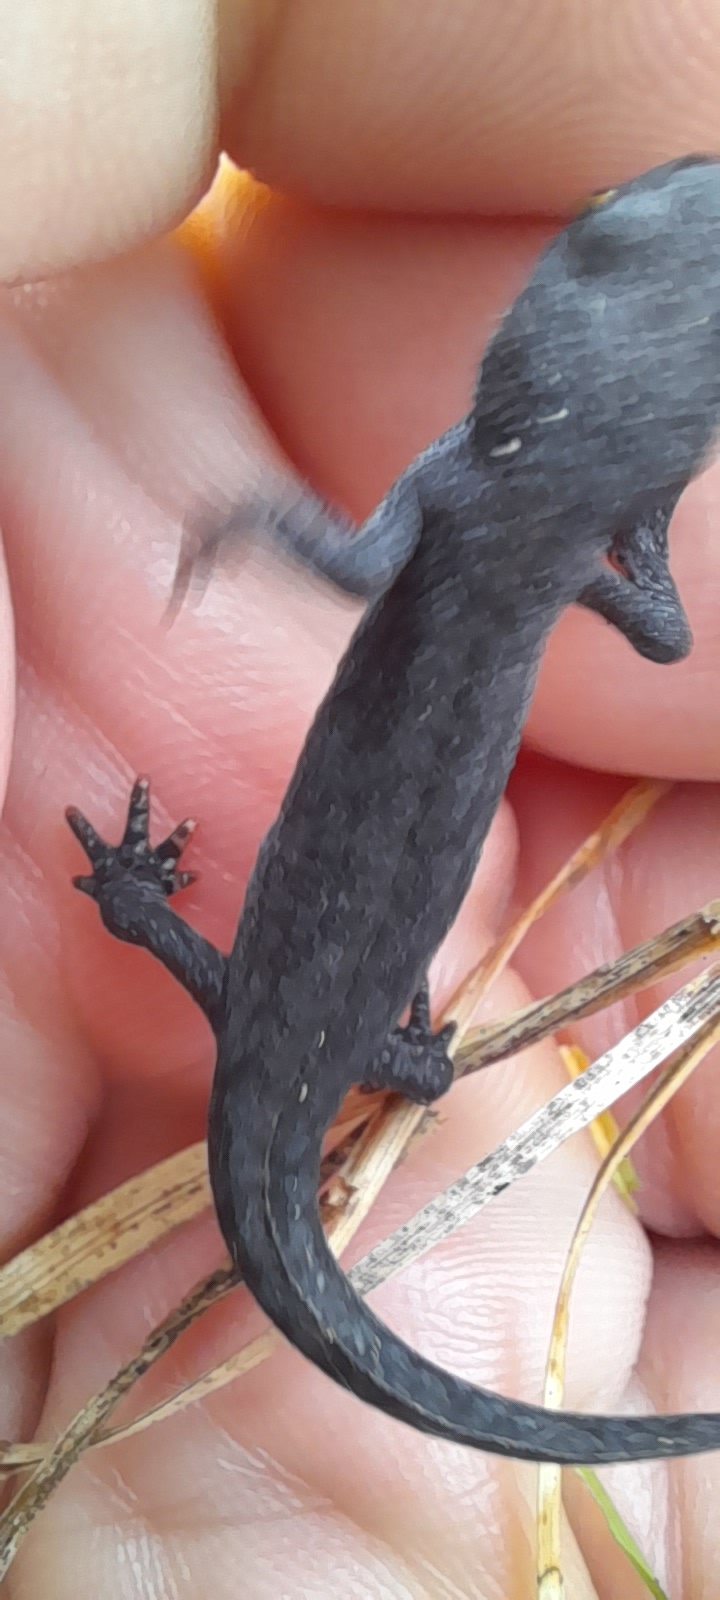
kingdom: Animalia
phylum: Chordata
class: Amphibia
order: Caudata
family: Salamandridae
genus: Ichthyosaura
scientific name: Ichthyosaura alpestris
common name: Alpine newt
